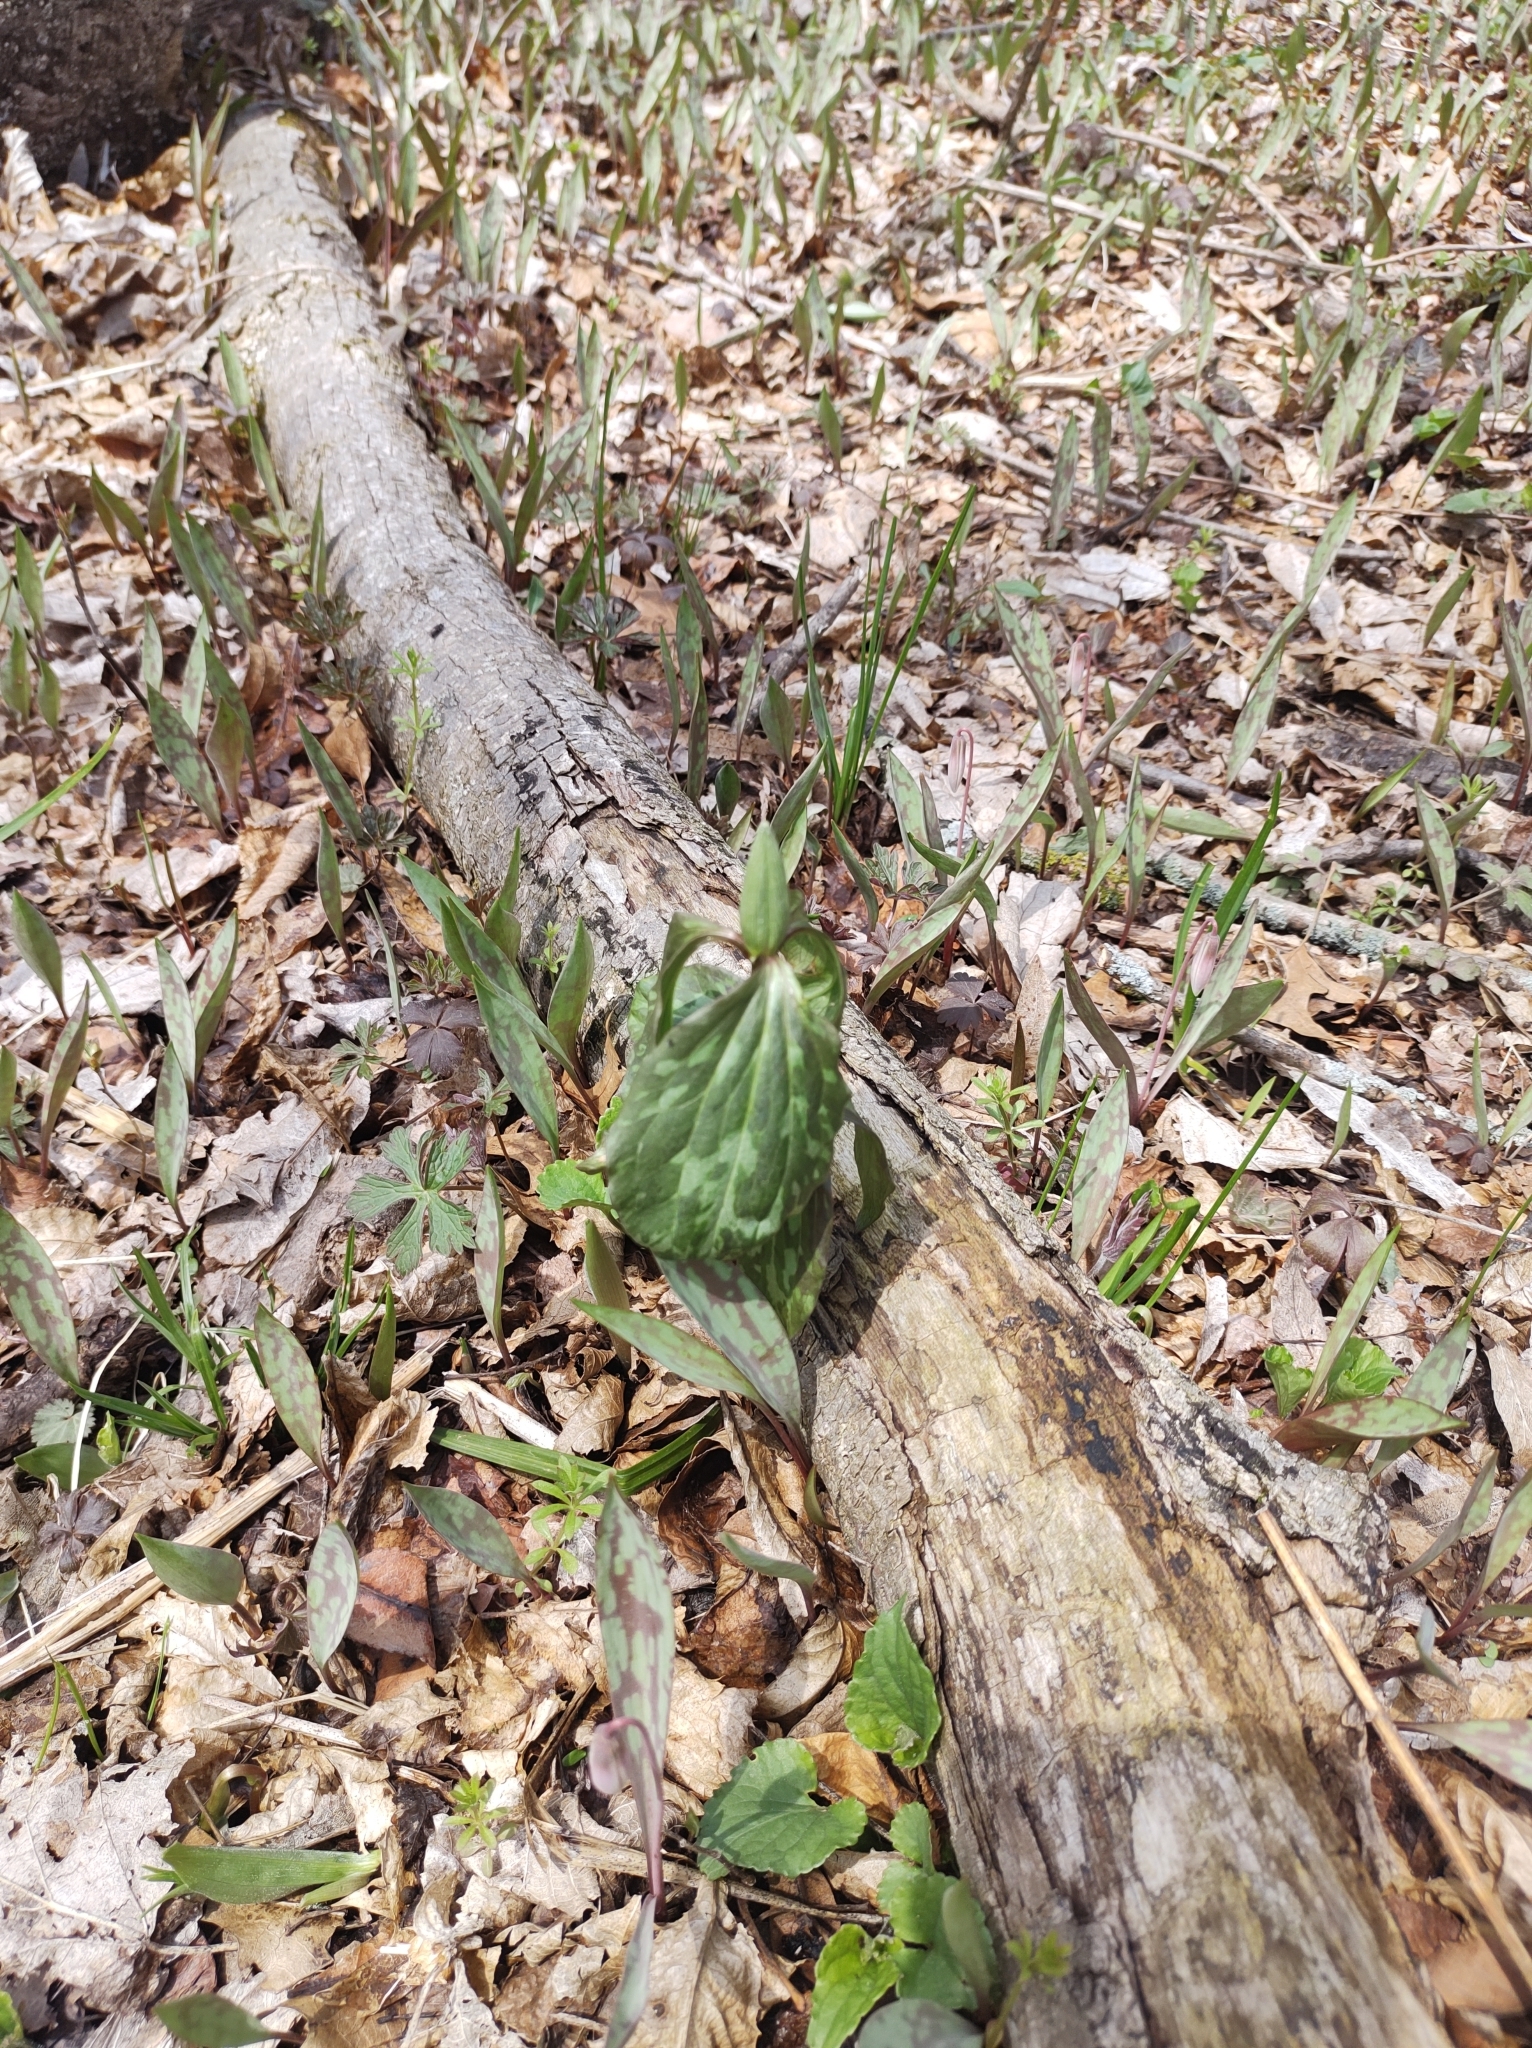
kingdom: Plantae
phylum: Tracheophyta
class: Liliopsida
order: Liliales
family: Melanthiaceae
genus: Trillium
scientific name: Trillium recurvatum
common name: Bloody butcher
